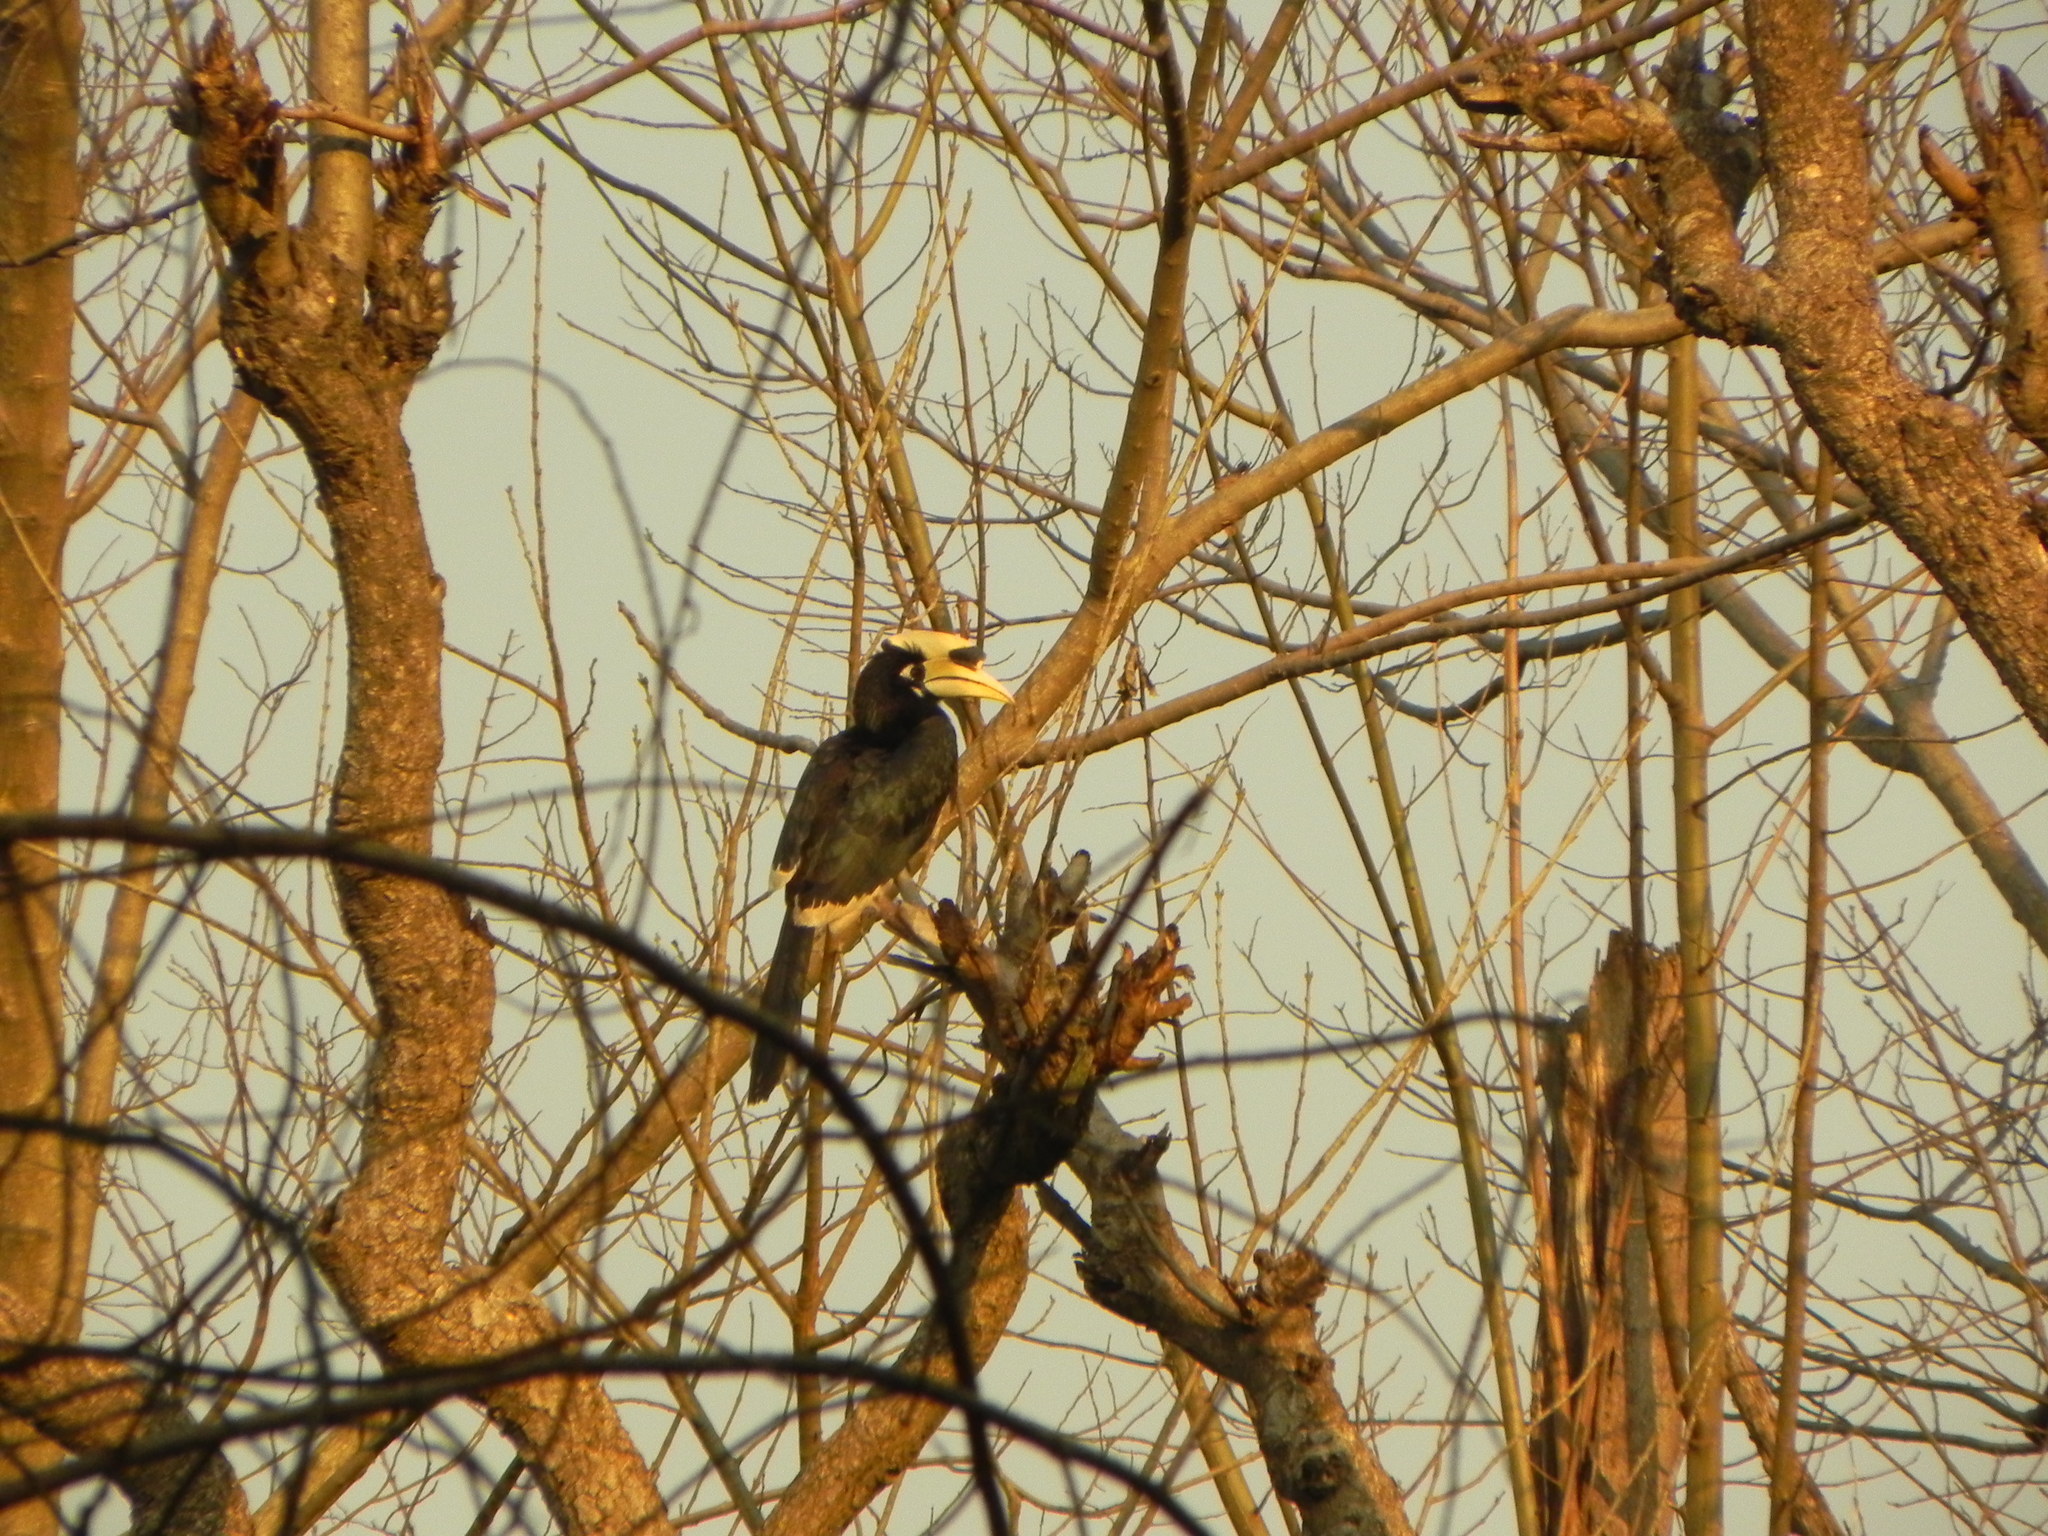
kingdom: Animalia
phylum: Chordata
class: Aves
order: Bucerotiformes
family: Bucerotidae
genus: Anthracoceros
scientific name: Anthracoceros albirostris
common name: Oriental pied-hornbill
